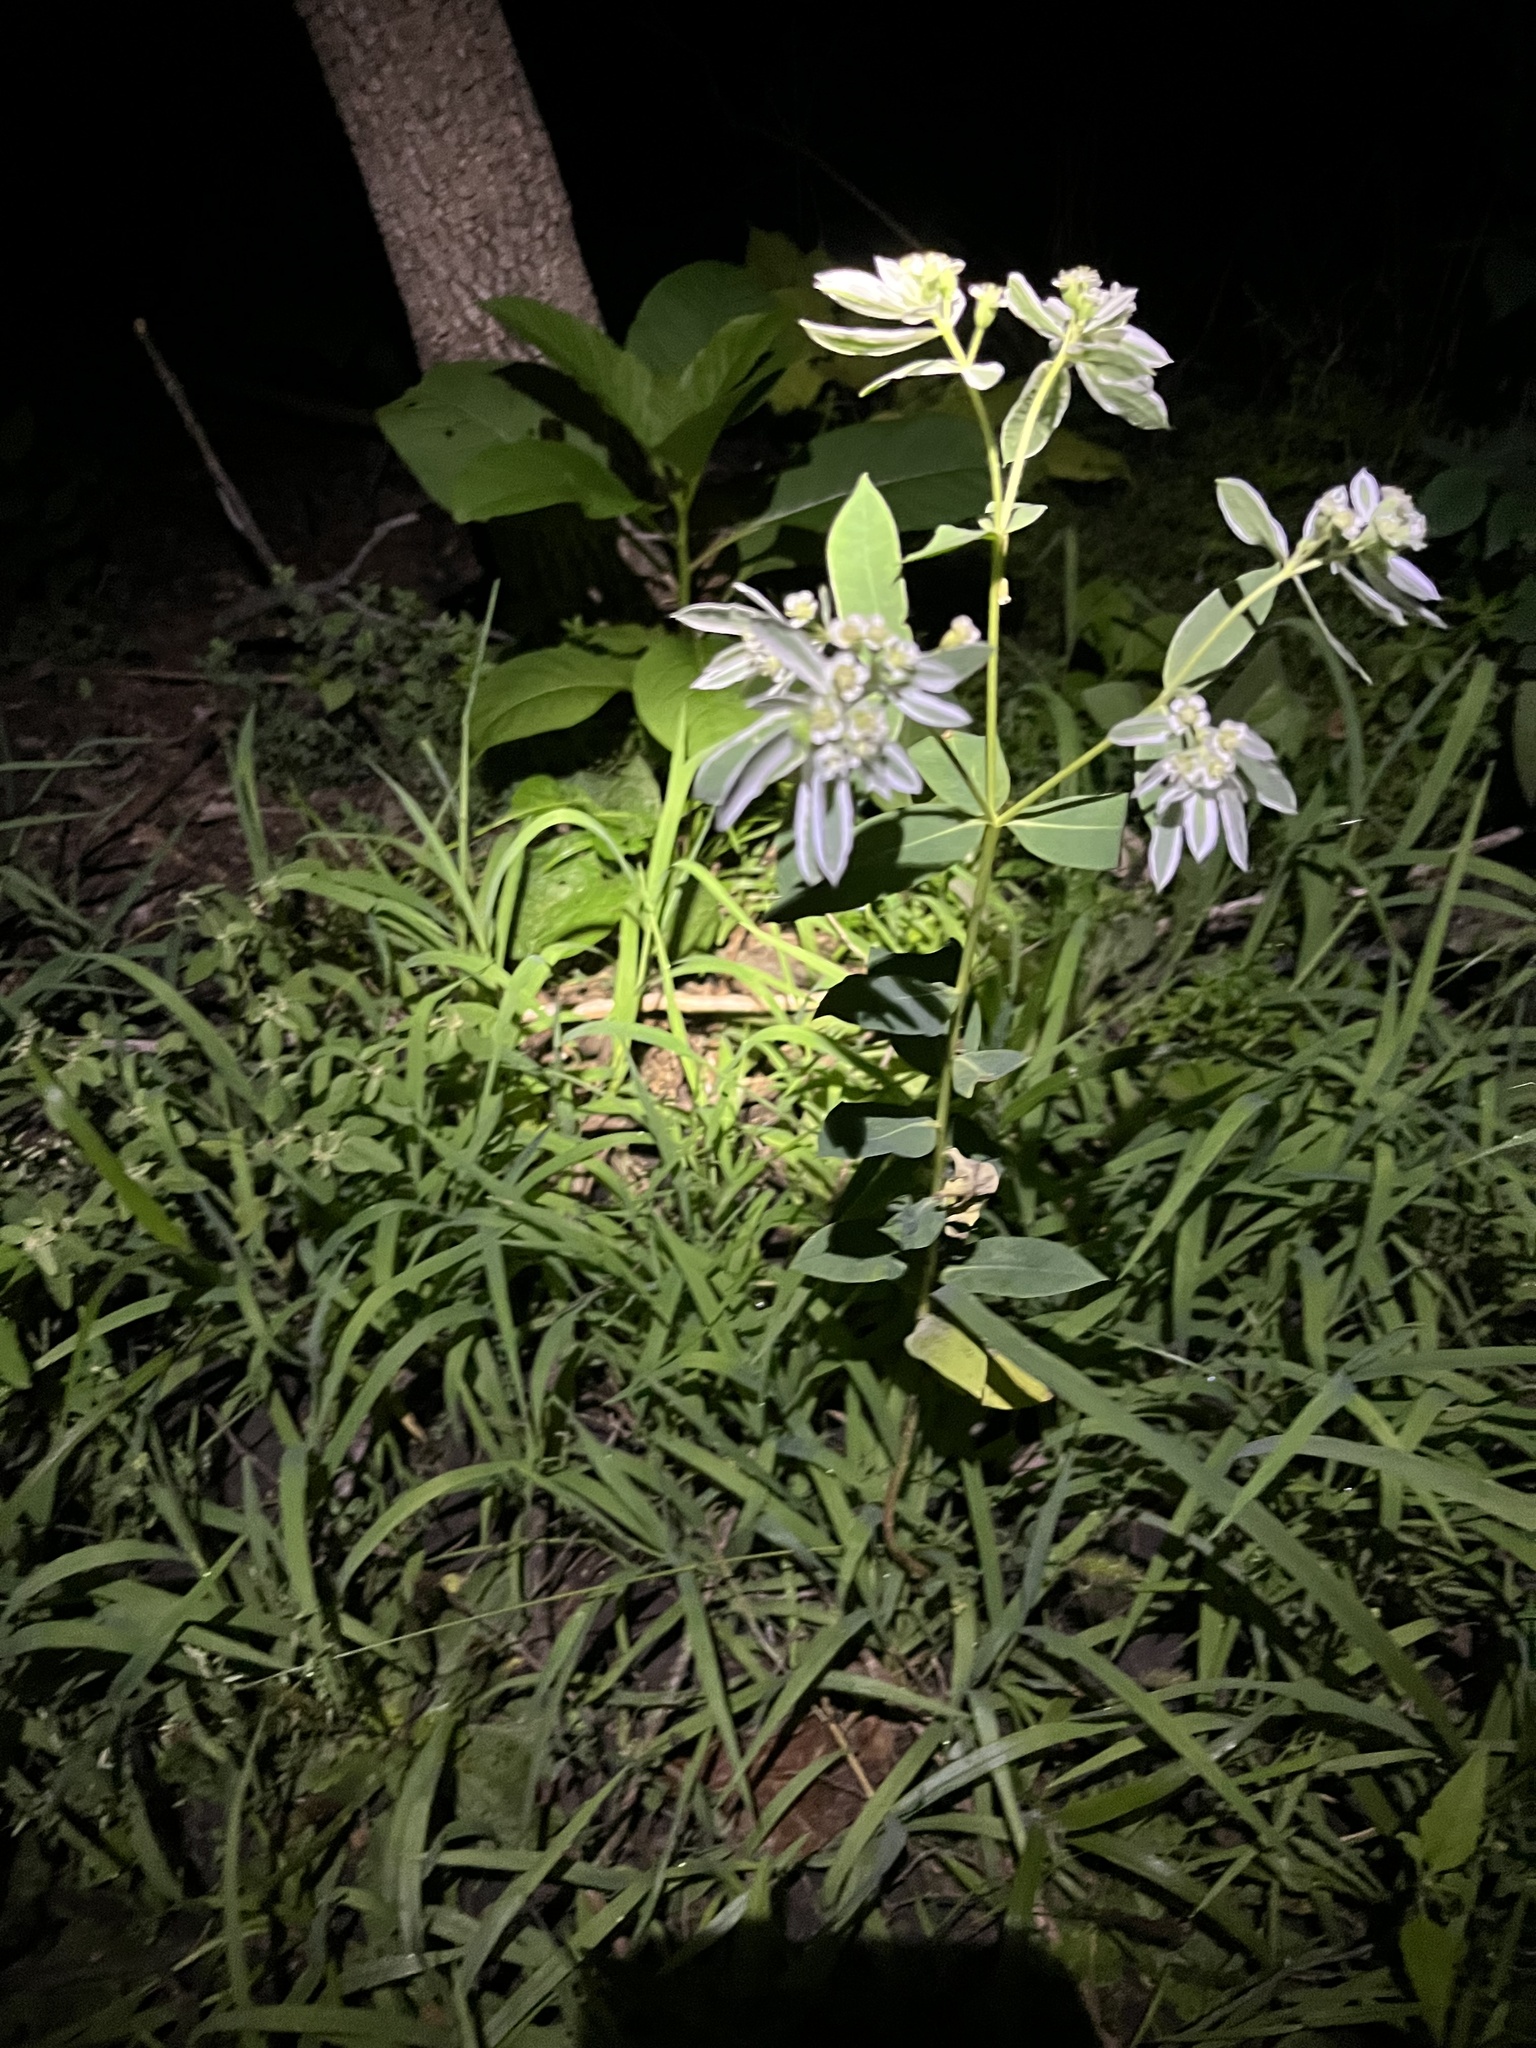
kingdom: Plantae
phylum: Tracheophyta
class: Magnoliopsida
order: Malpighiales
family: Euphorbiaceae
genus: Euphorbia
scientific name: Euphorbia marginata
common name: Ghostweed
